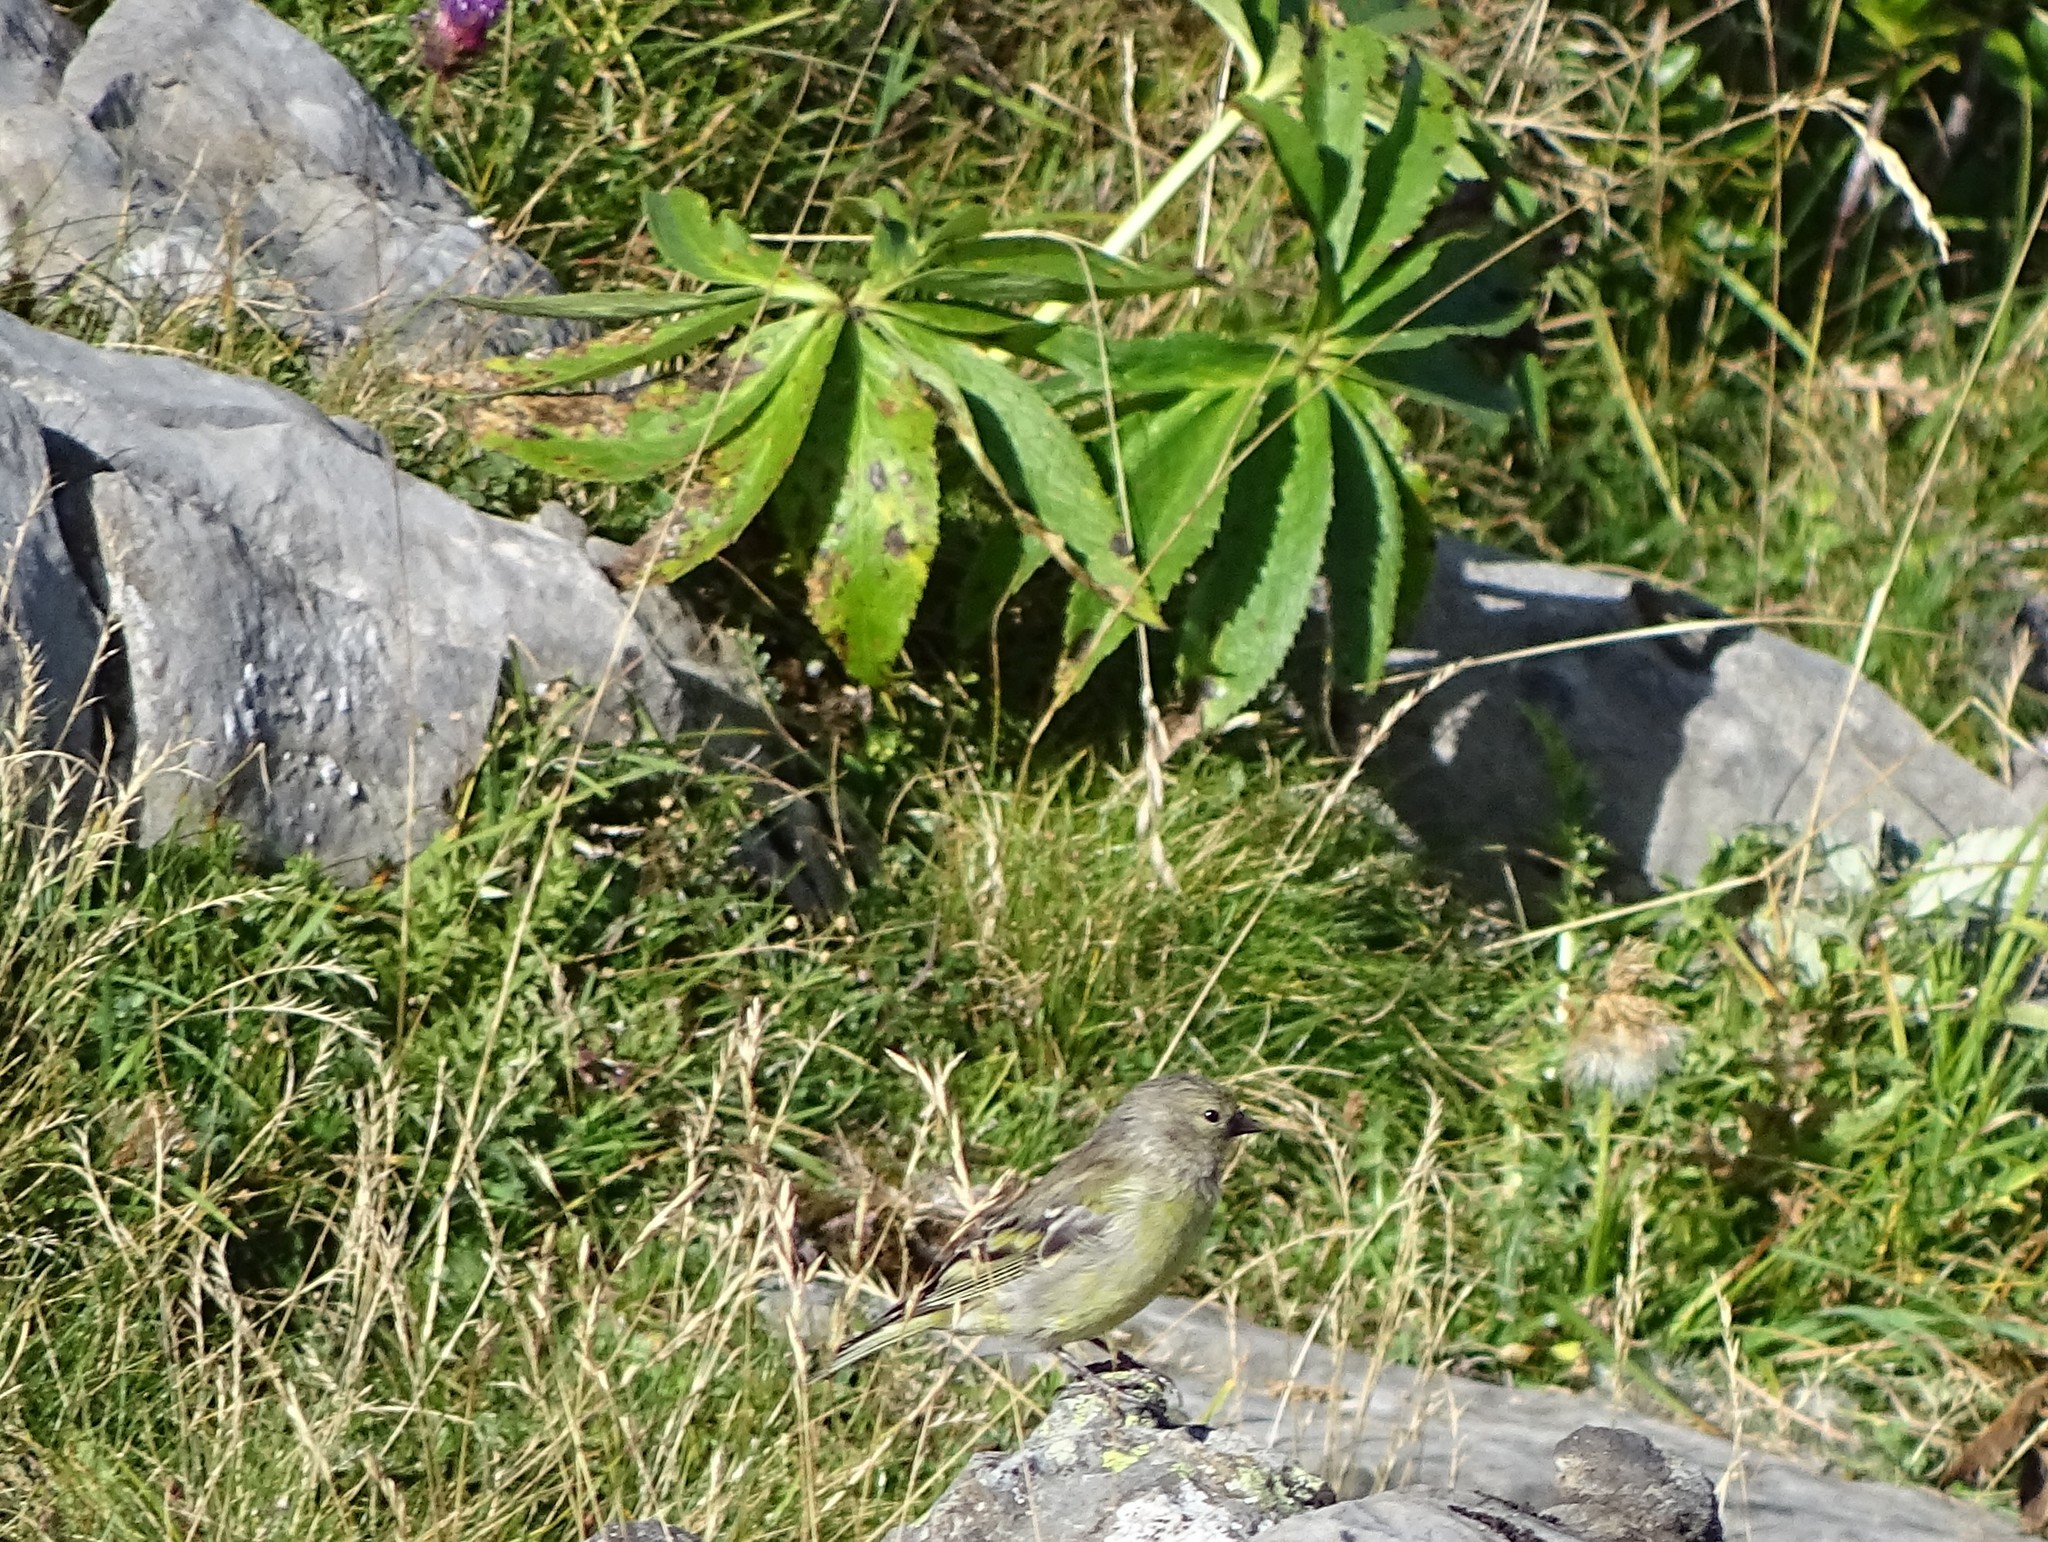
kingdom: Animalia
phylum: Chordata
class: Aves
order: Passeriformes
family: Fringillidae
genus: Carduelis
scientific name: Carduelis citrinella
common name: Citril finch
